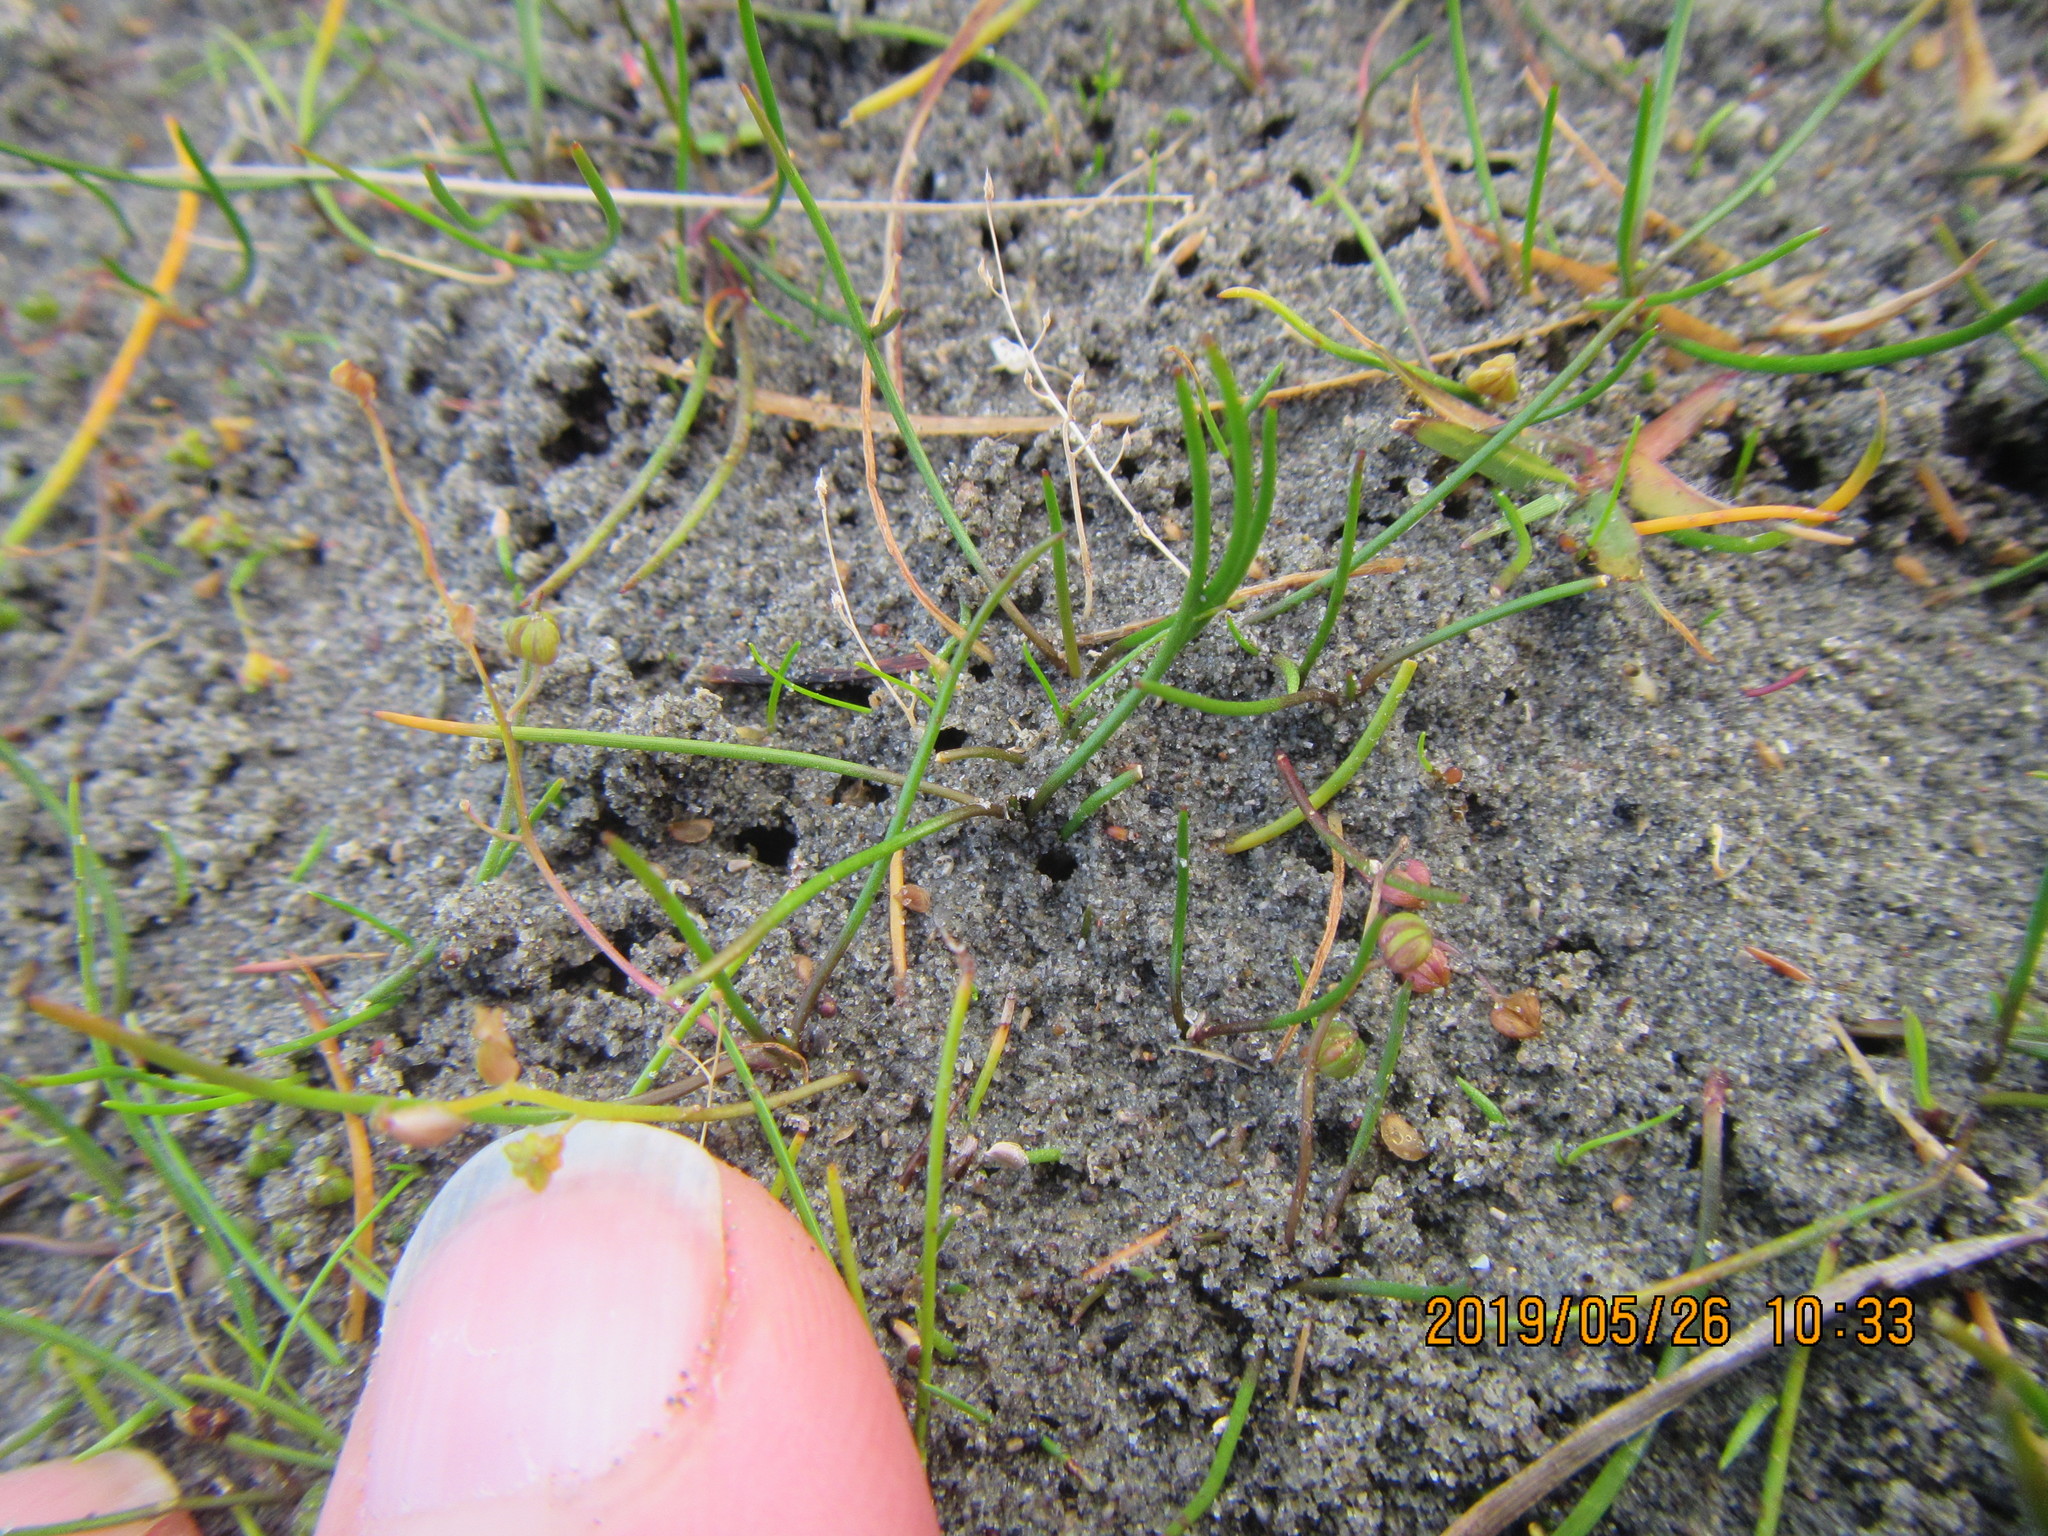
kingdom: Plantae
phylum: Tracheophyta
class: Liliopsida
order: Alismatales
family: Juncaginaceae
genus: Triglochin
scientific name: Triglochin striata
